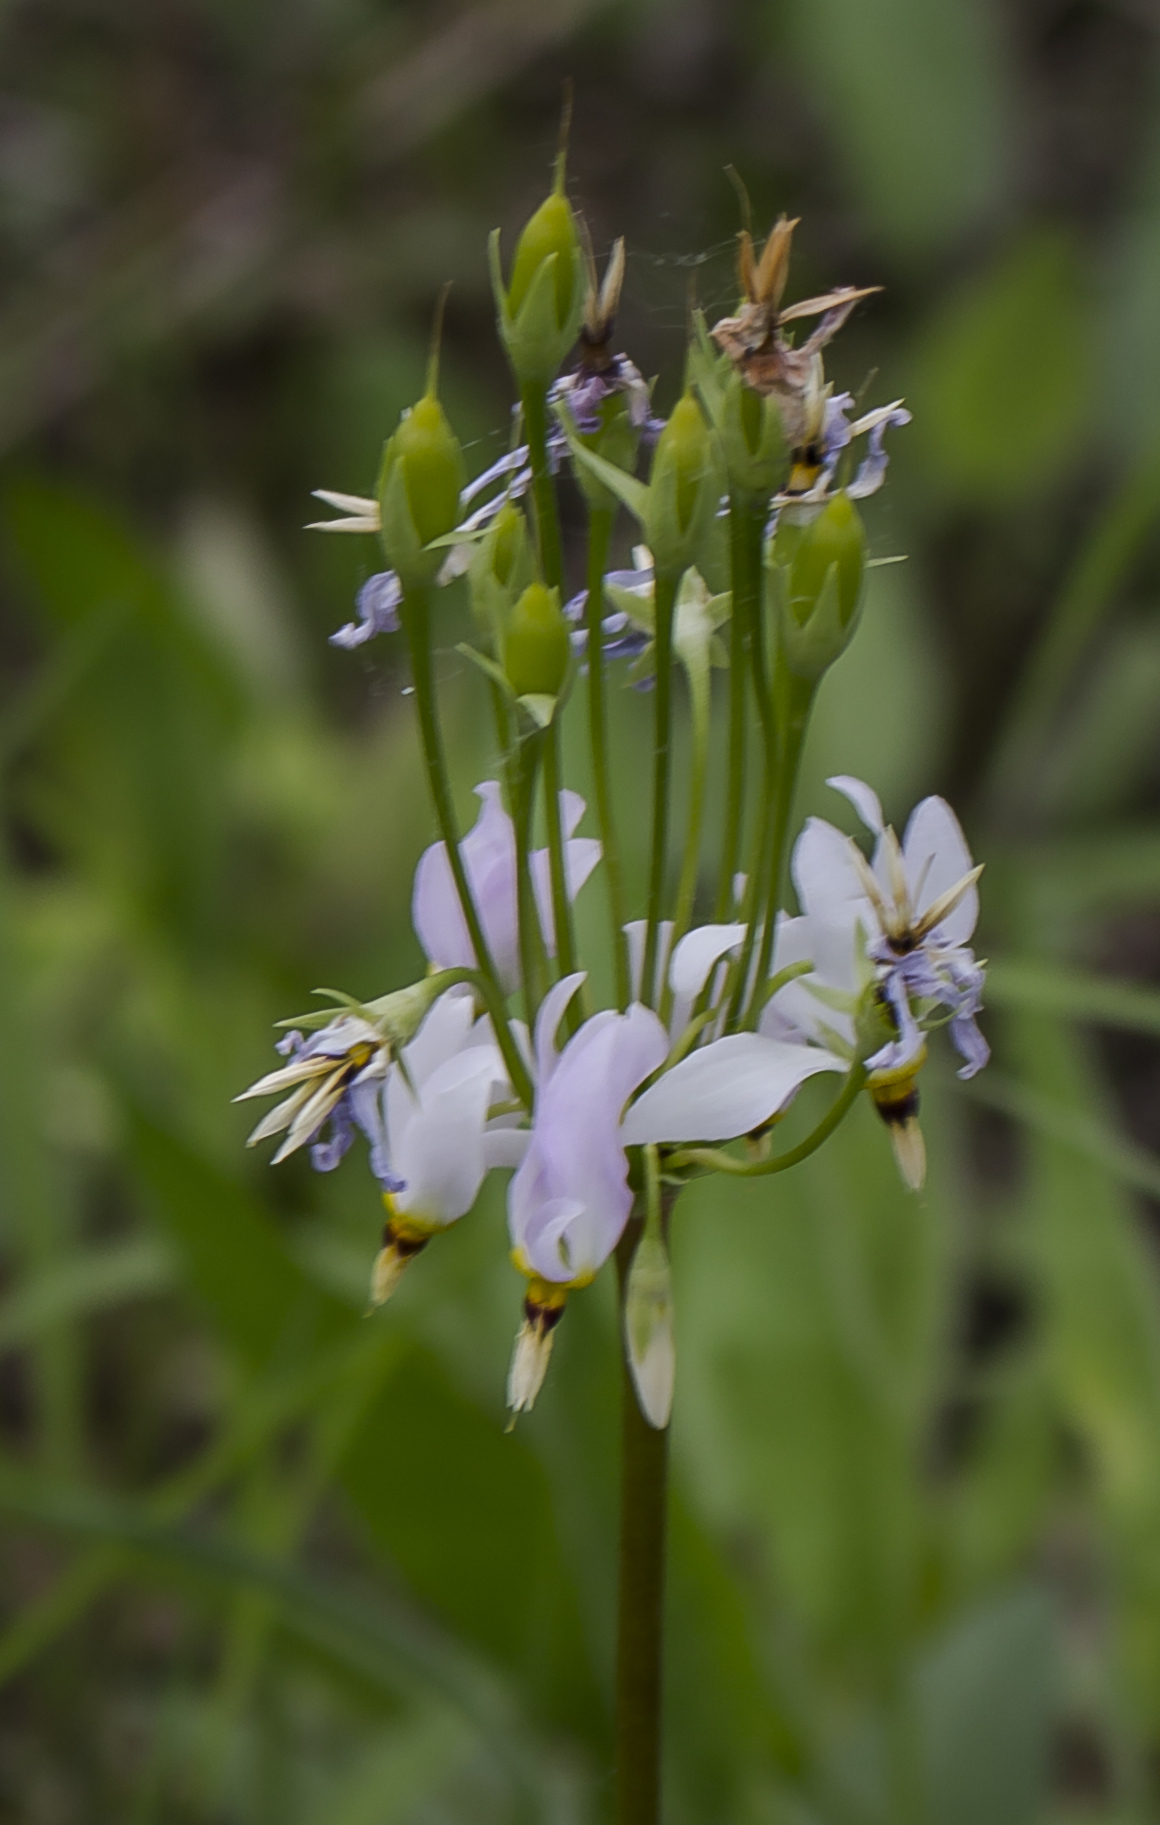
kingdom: Plantae
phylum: Tracheophyta
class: Magnoliopsida
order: Ericales
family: Primulaceae
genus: Dodecatheon
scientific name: Dodecatheon meadia
